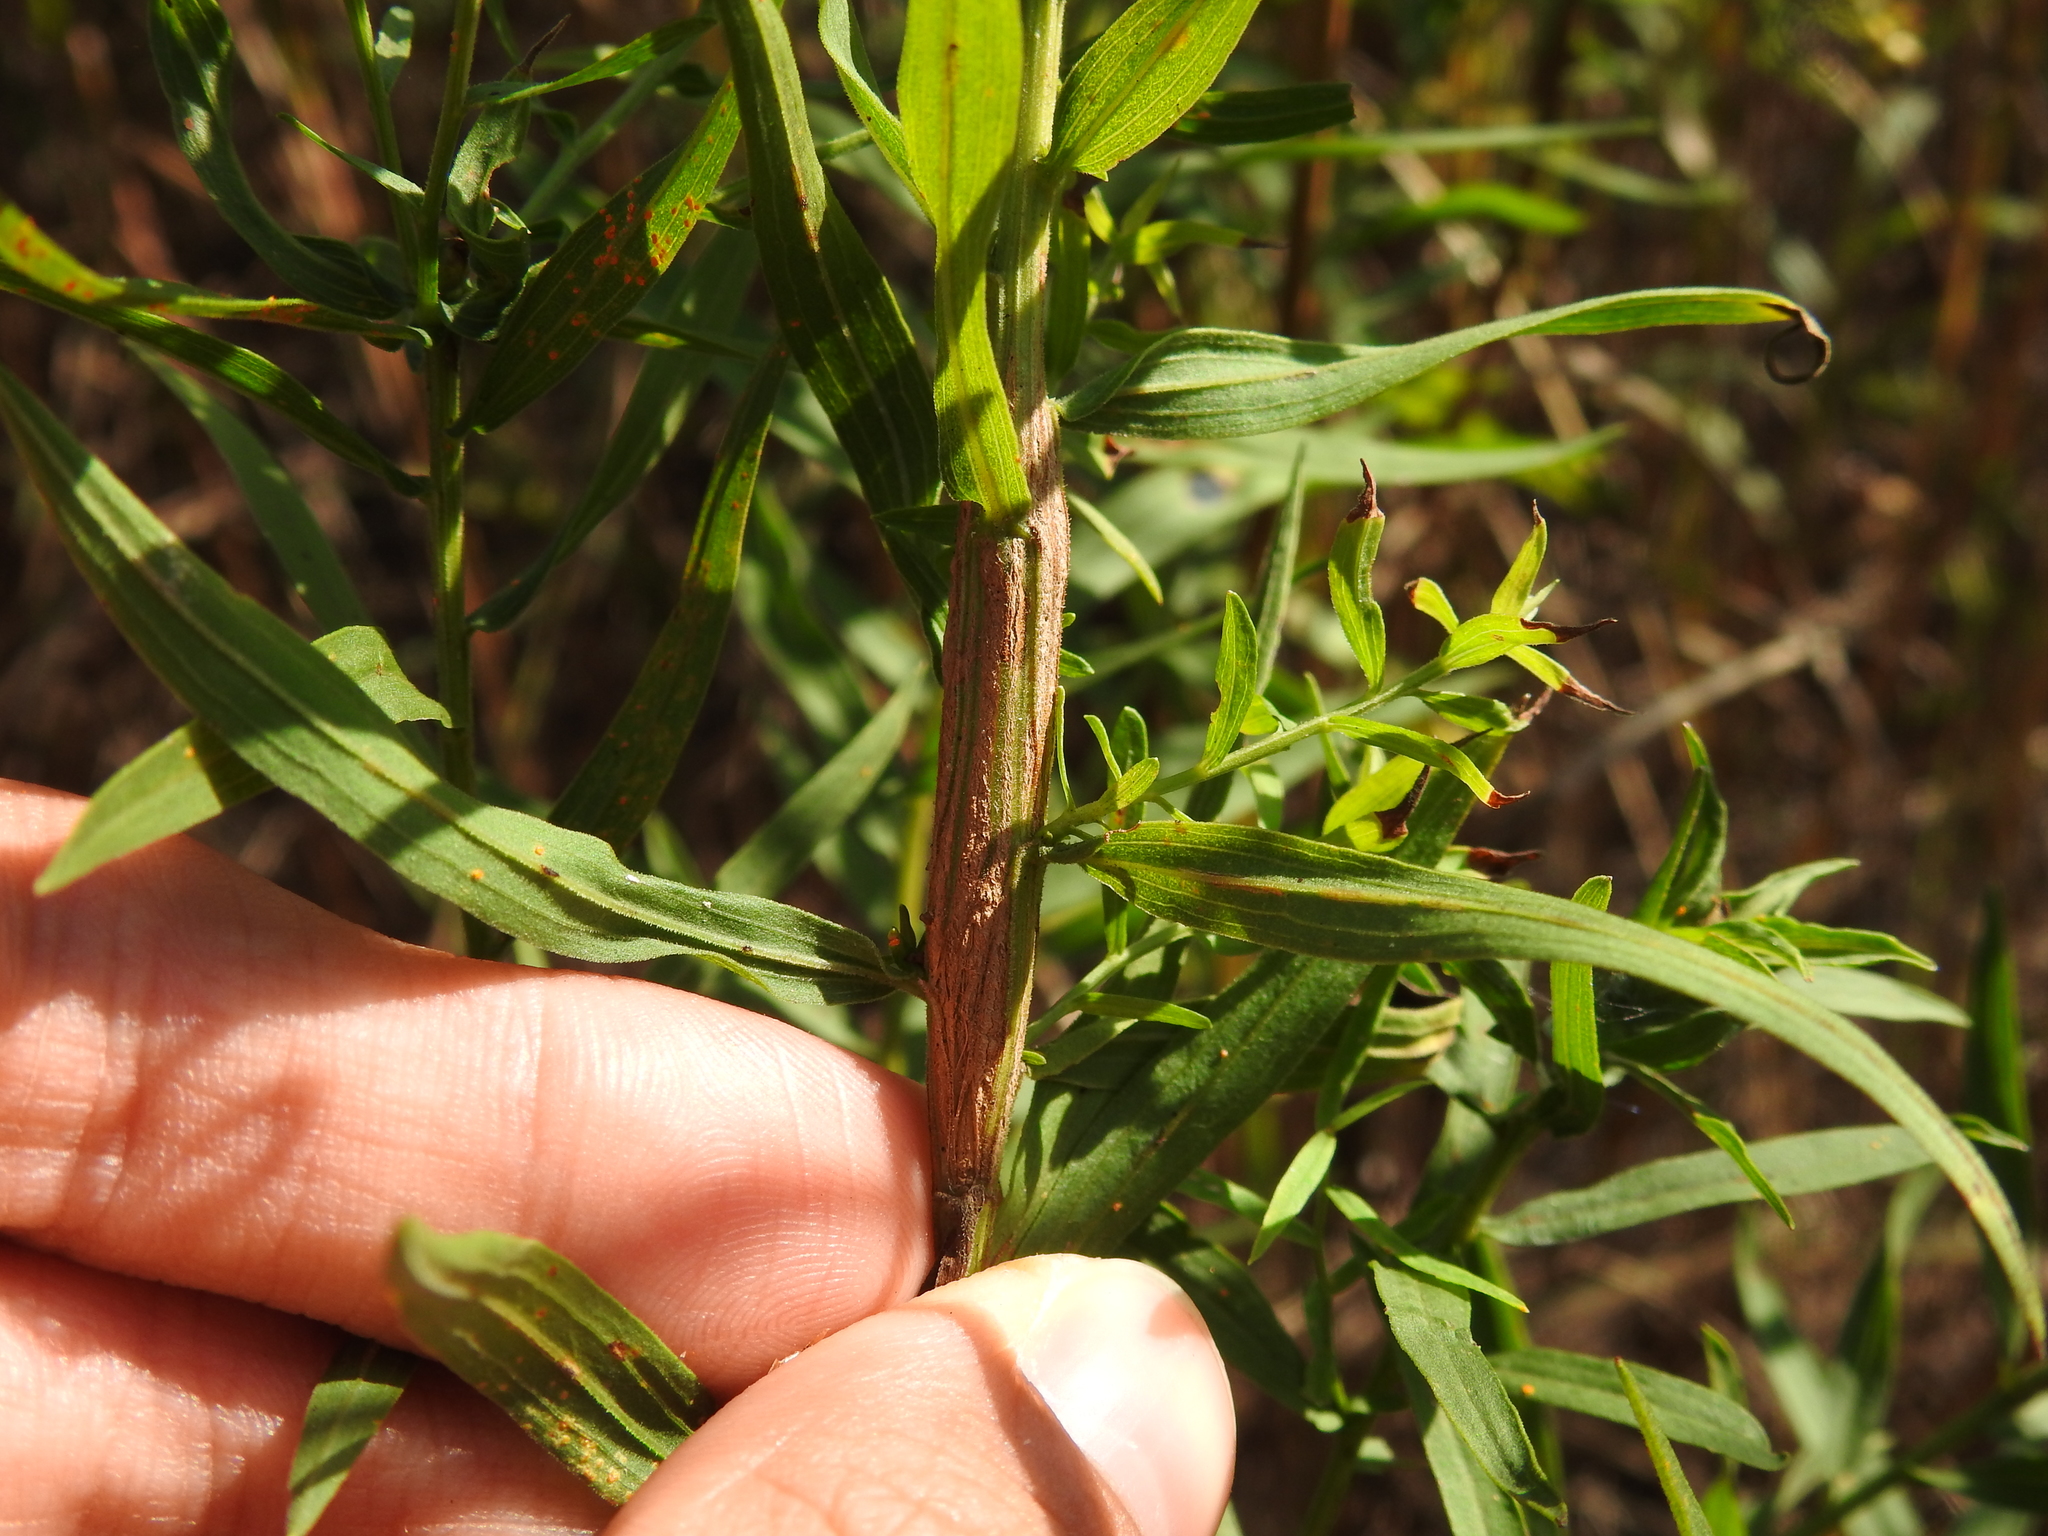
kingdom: Animalia
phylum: Arthropoda
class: Insecta
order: Lepidoptera
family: Tortricidae
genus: Epiblema
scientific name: Epiblema desertana
